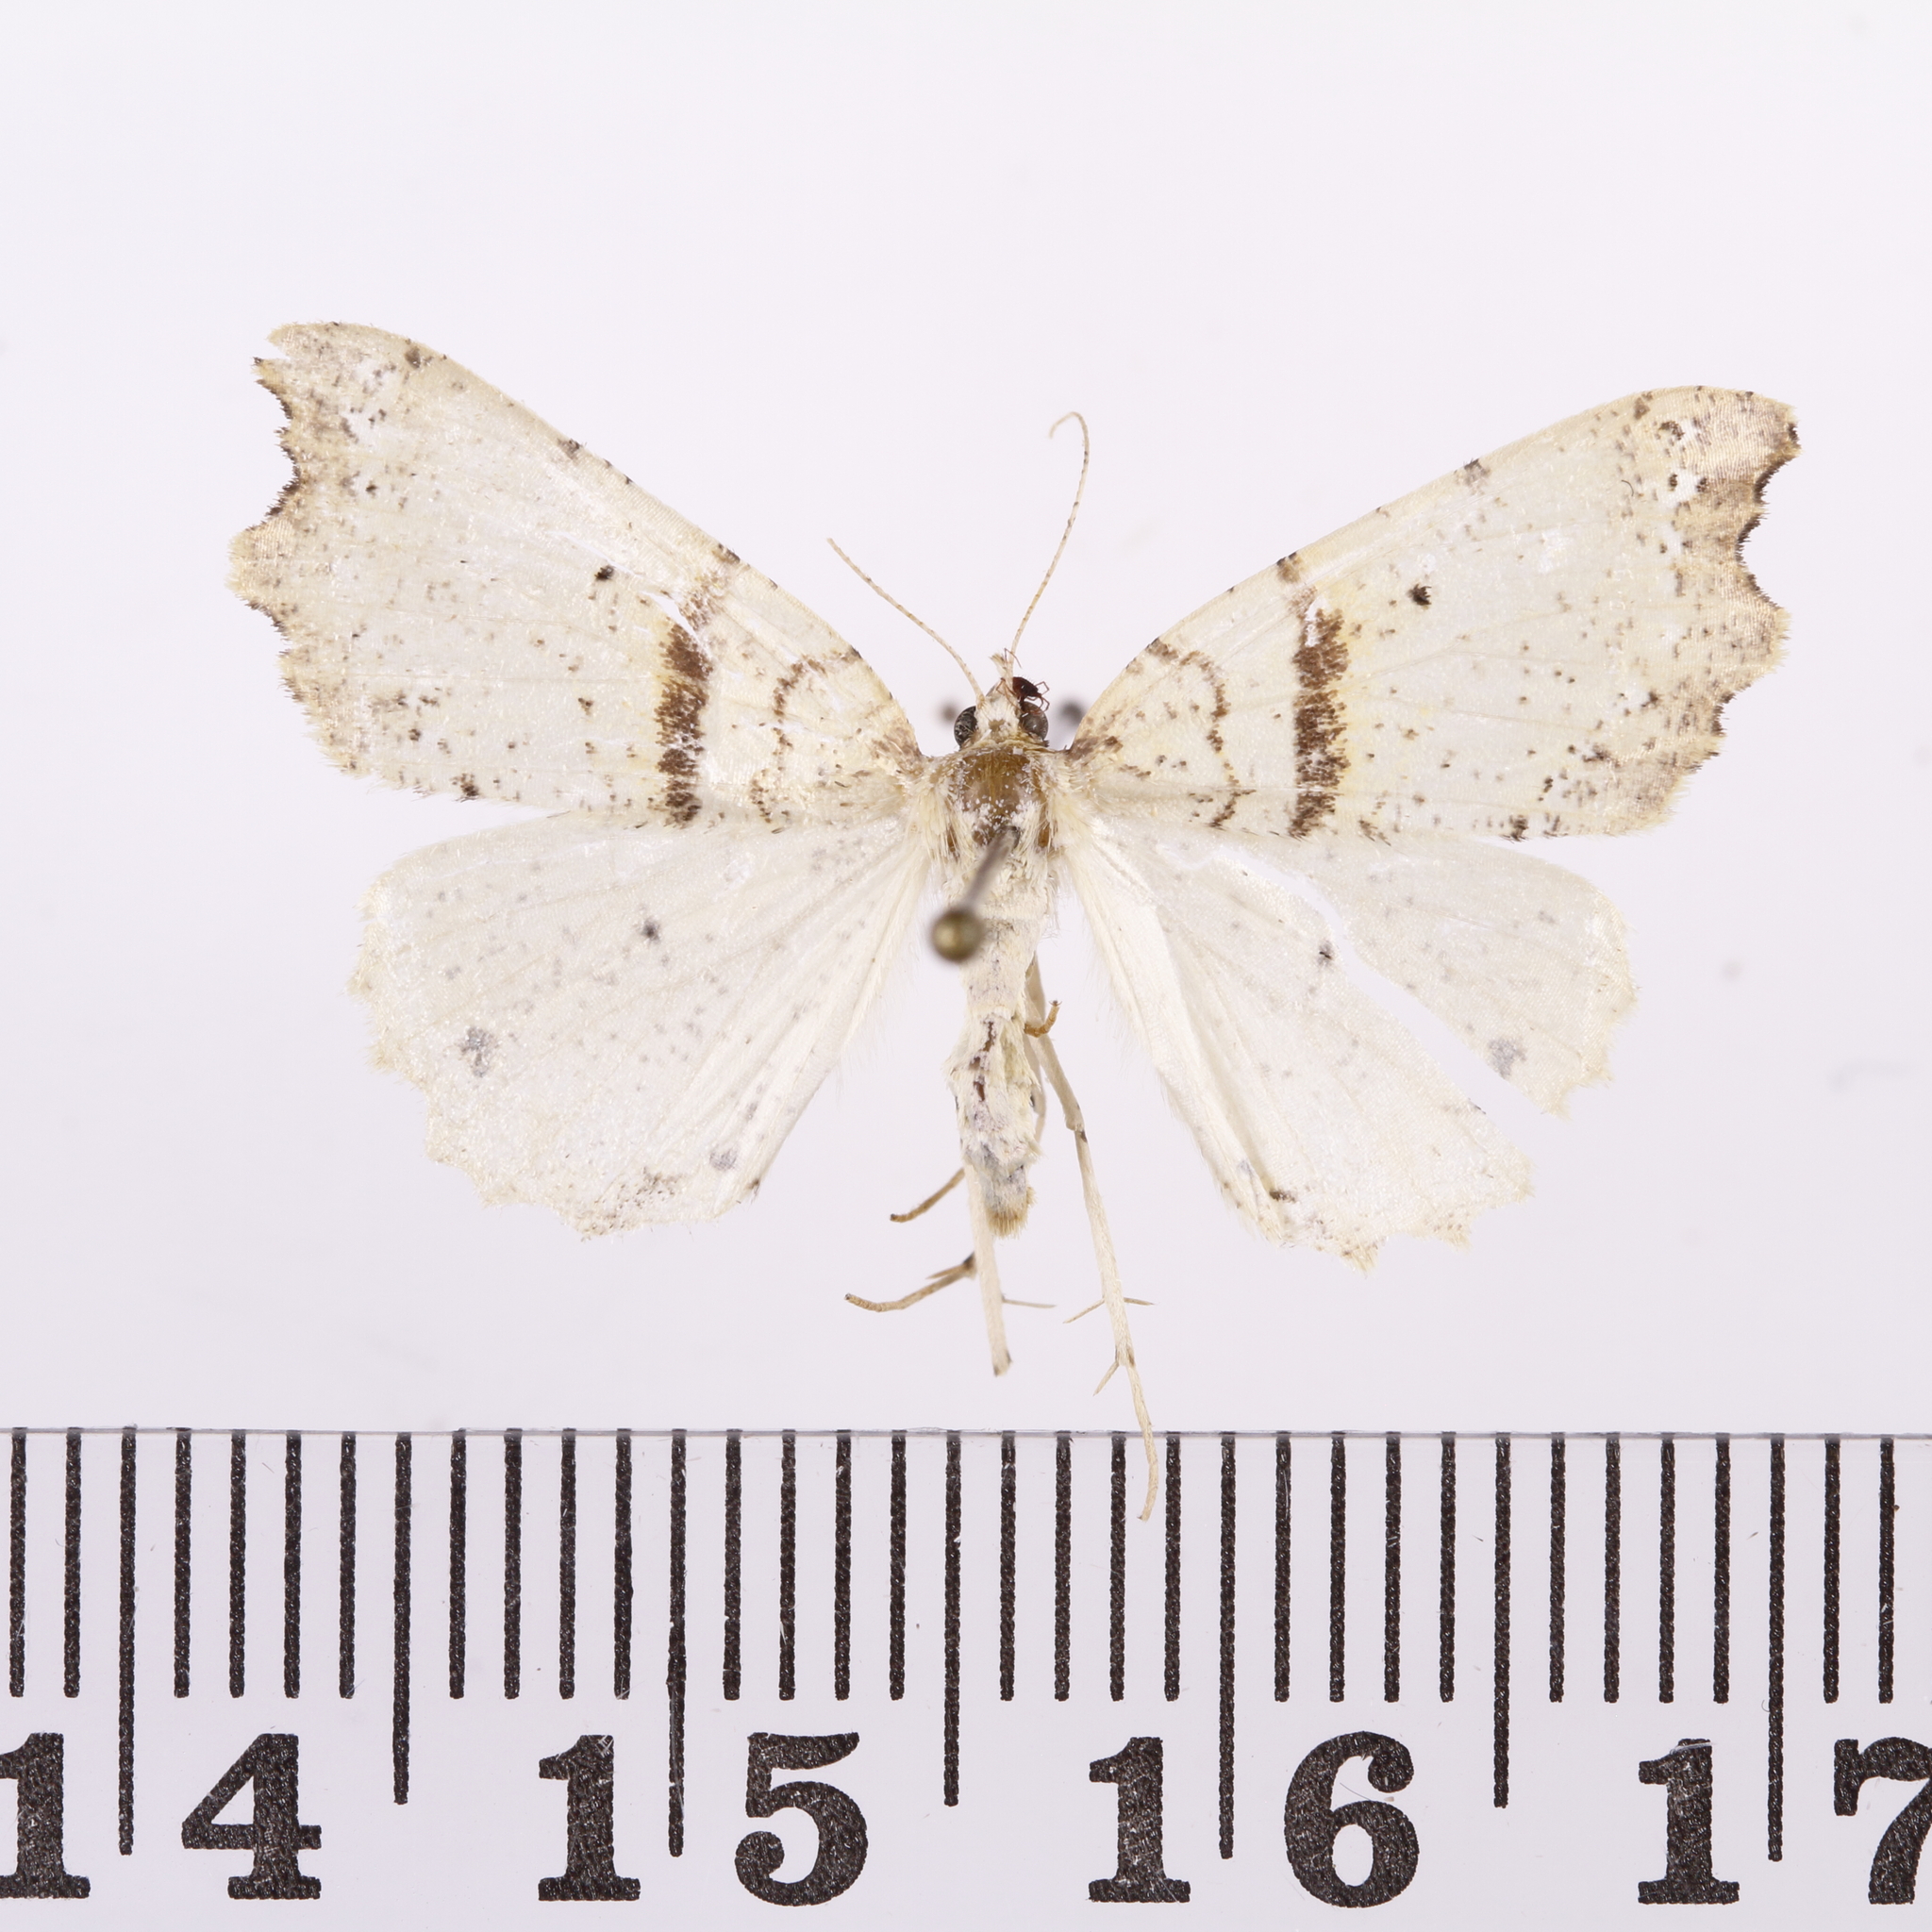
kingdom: Animalia
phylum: Arthropoda
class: Insecta
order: Lepidoptera
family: Geometridae
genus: Chalastra
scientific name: Chalastra pellurgata
